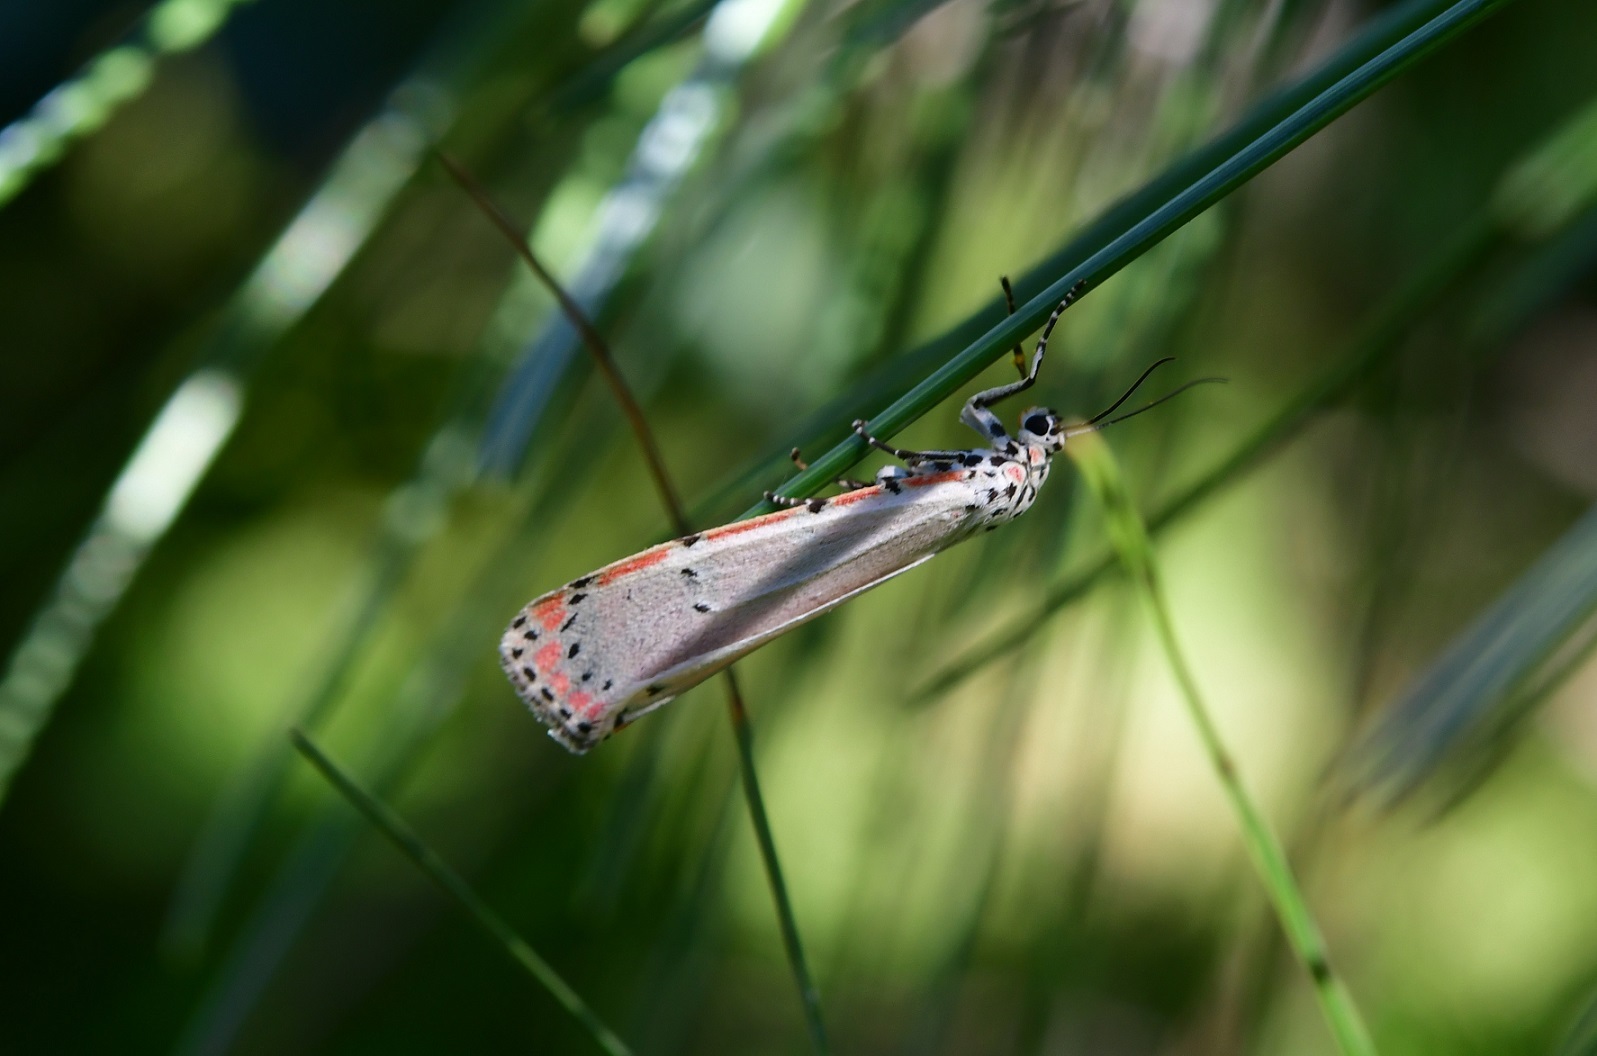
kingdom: Animalia
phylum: Arthropoda
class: Insecta
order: Lepidoptera
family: Erebidae
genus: Utetheisa
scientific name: Utetheisa ornatrix
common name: Beautiful utetheisa
